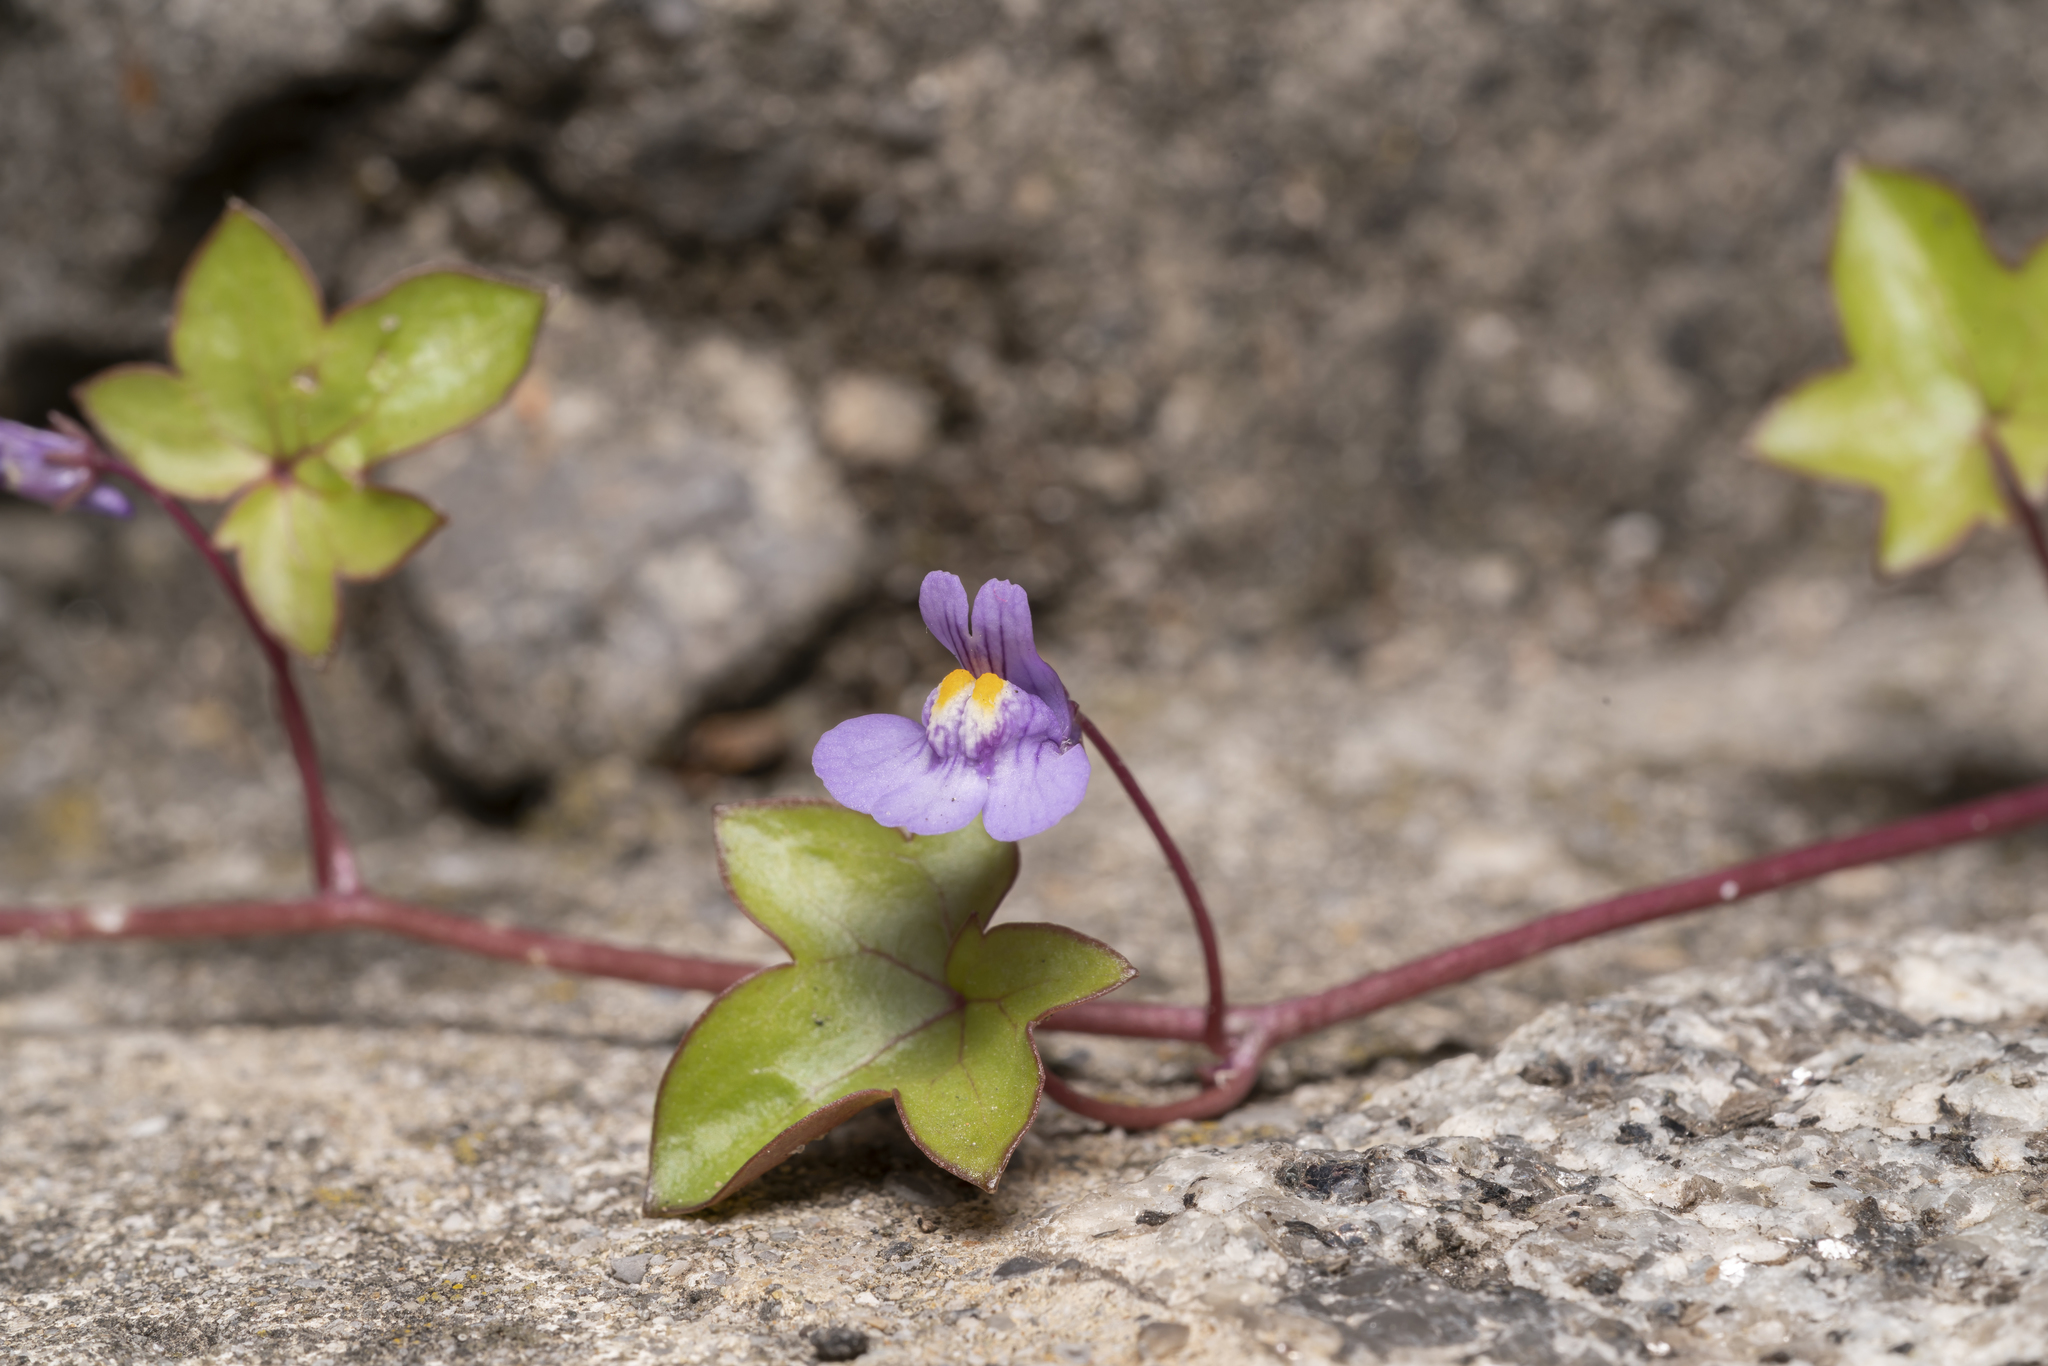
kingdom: Plantae
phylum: Tracheophyta
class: Magnoliopsida
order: Lamiales
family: Plantaginaceae
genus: Cymbalaria
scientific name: Cymbalaria muralis
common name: Ivy-leaved toadflax
